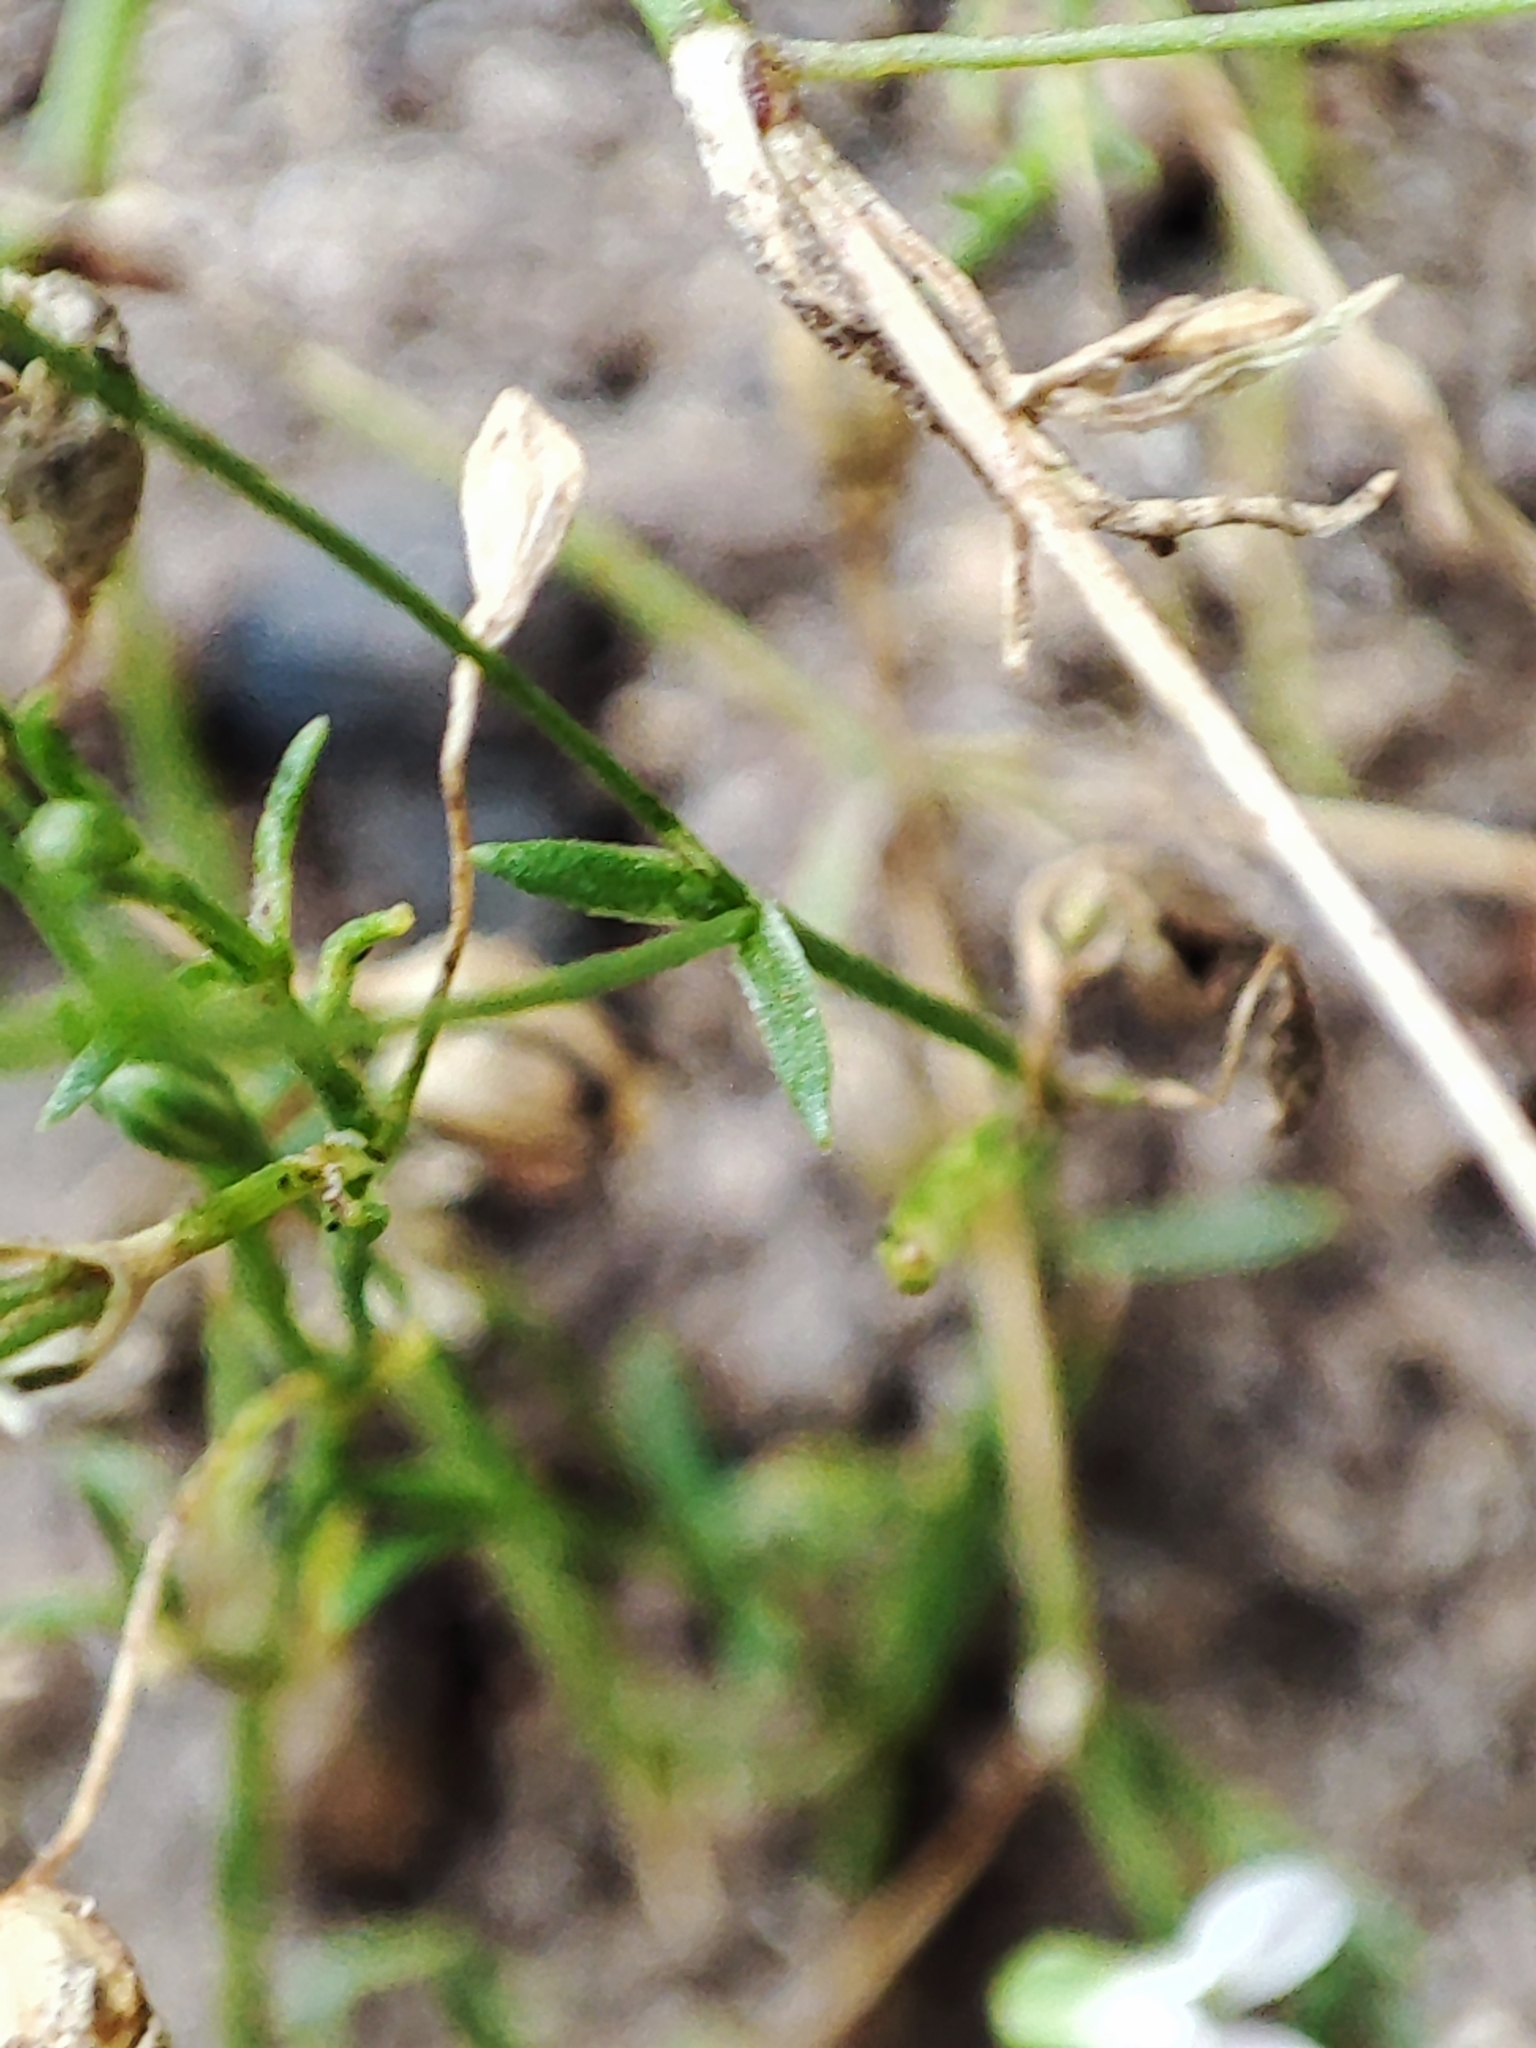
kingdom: Plantae
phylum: Tracheophyta
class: Magnoliopsida
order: Caryophyllales
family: Caryophyllaceae
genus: Psammophiliella
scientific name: Psammophiliella muralis
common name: Cushion baby's-breath
